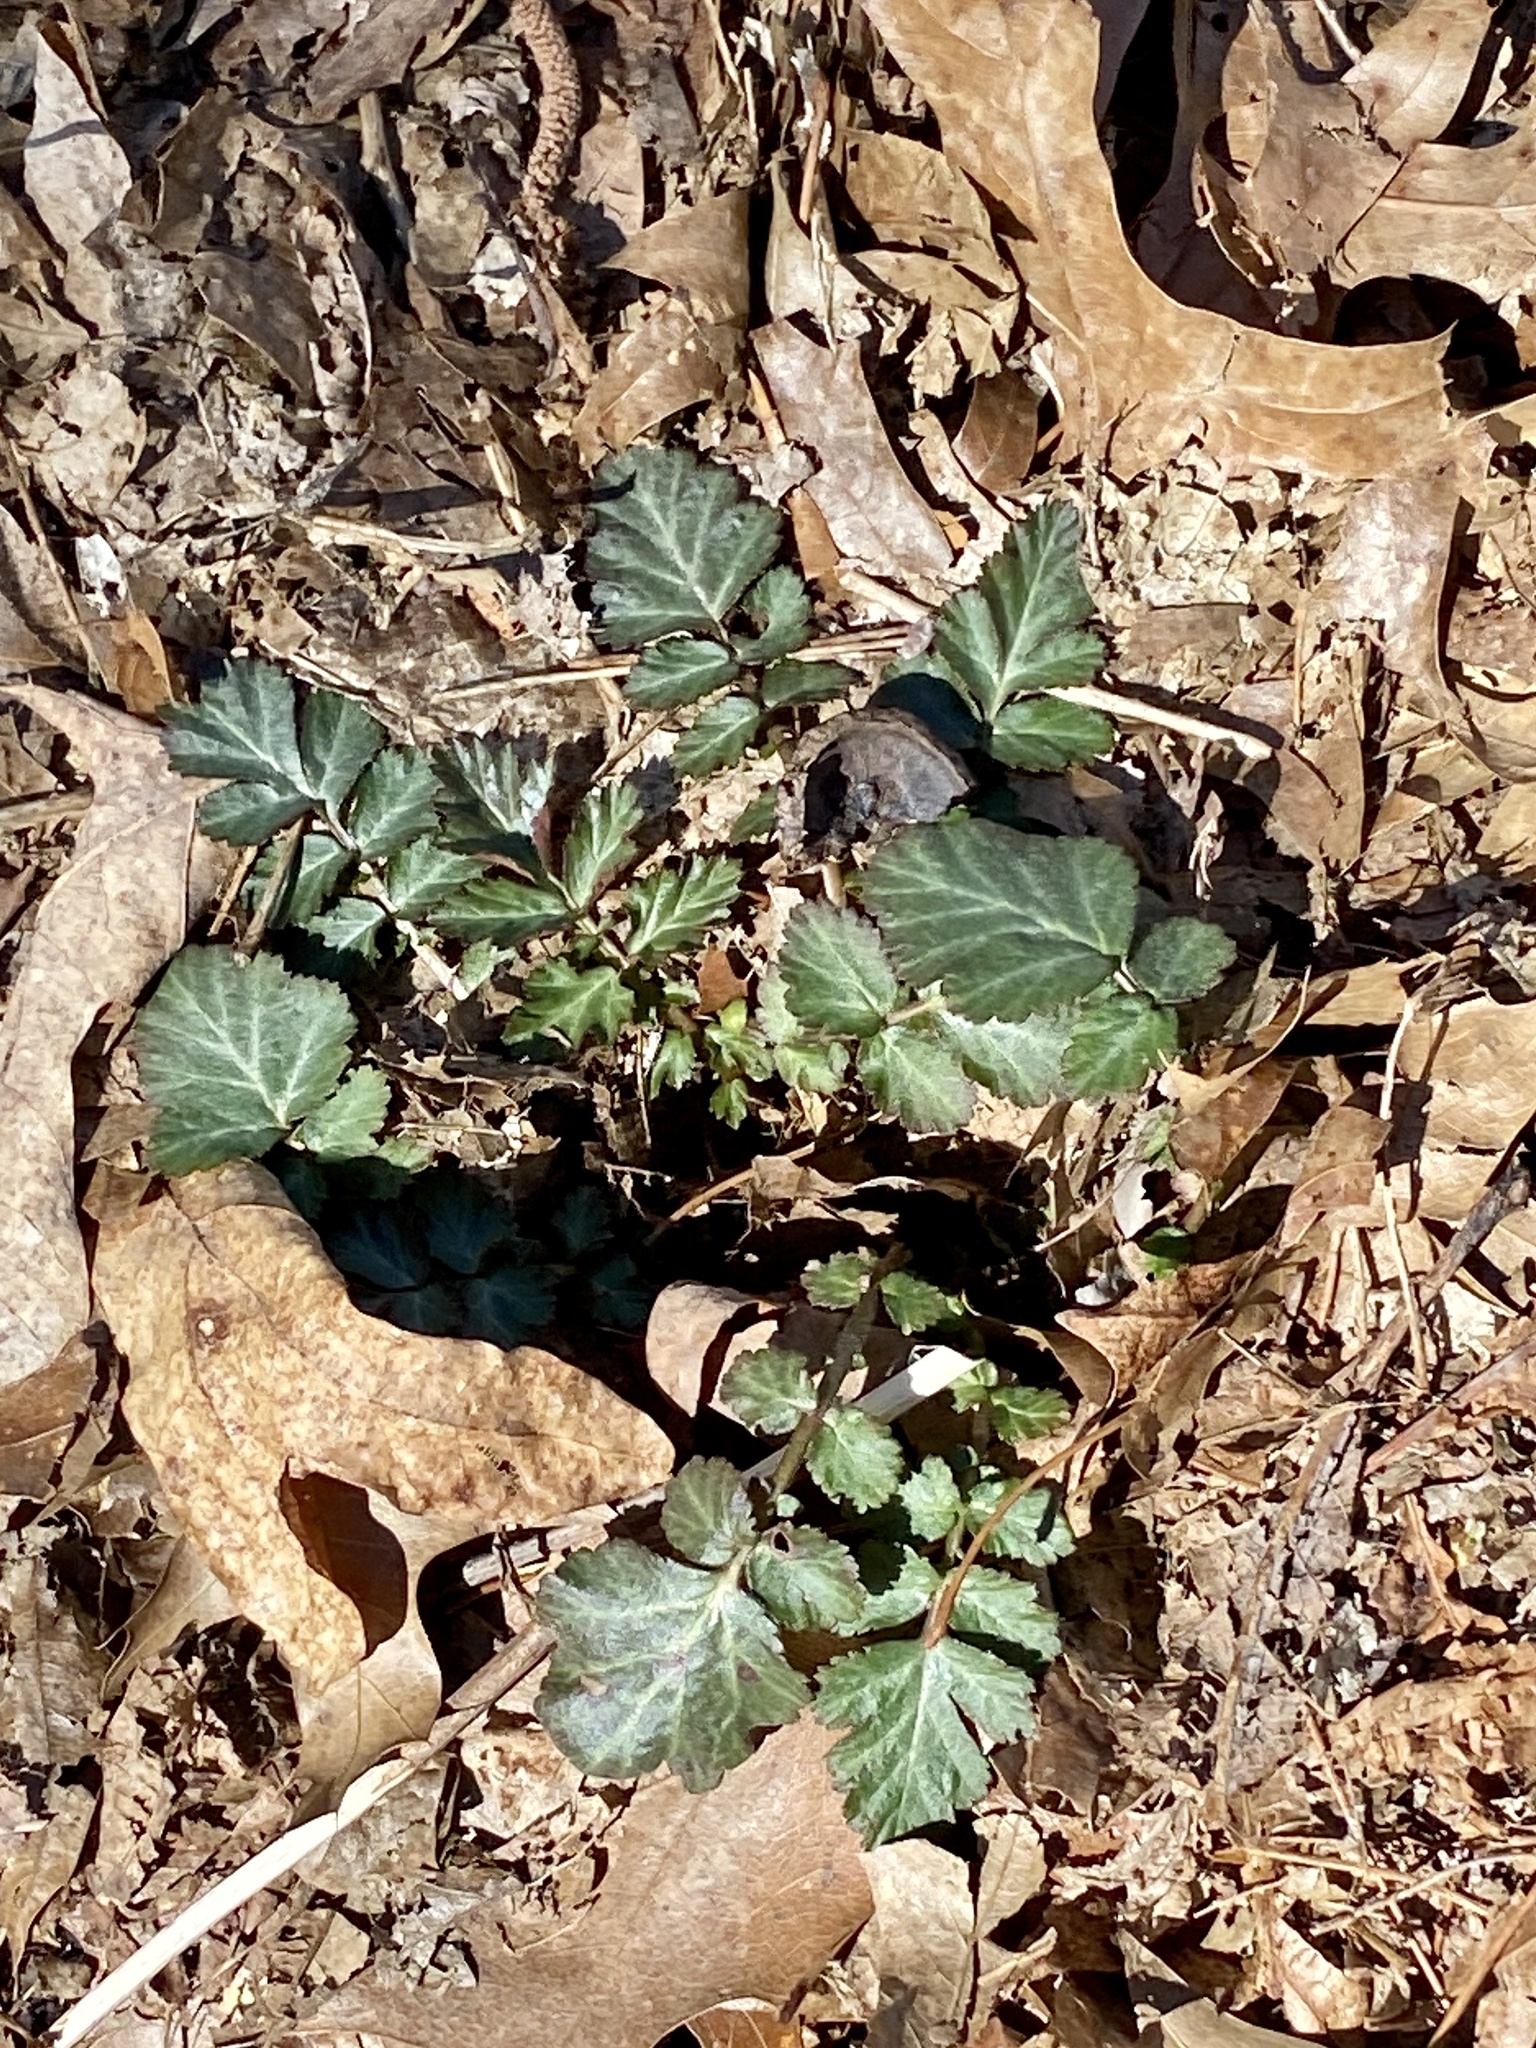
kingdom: Plantae
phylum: Tracheophyta
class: Magnoliopsida
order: Rosales
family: Rosaceae
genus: Geum
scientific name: Geum canadense
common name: White avens
